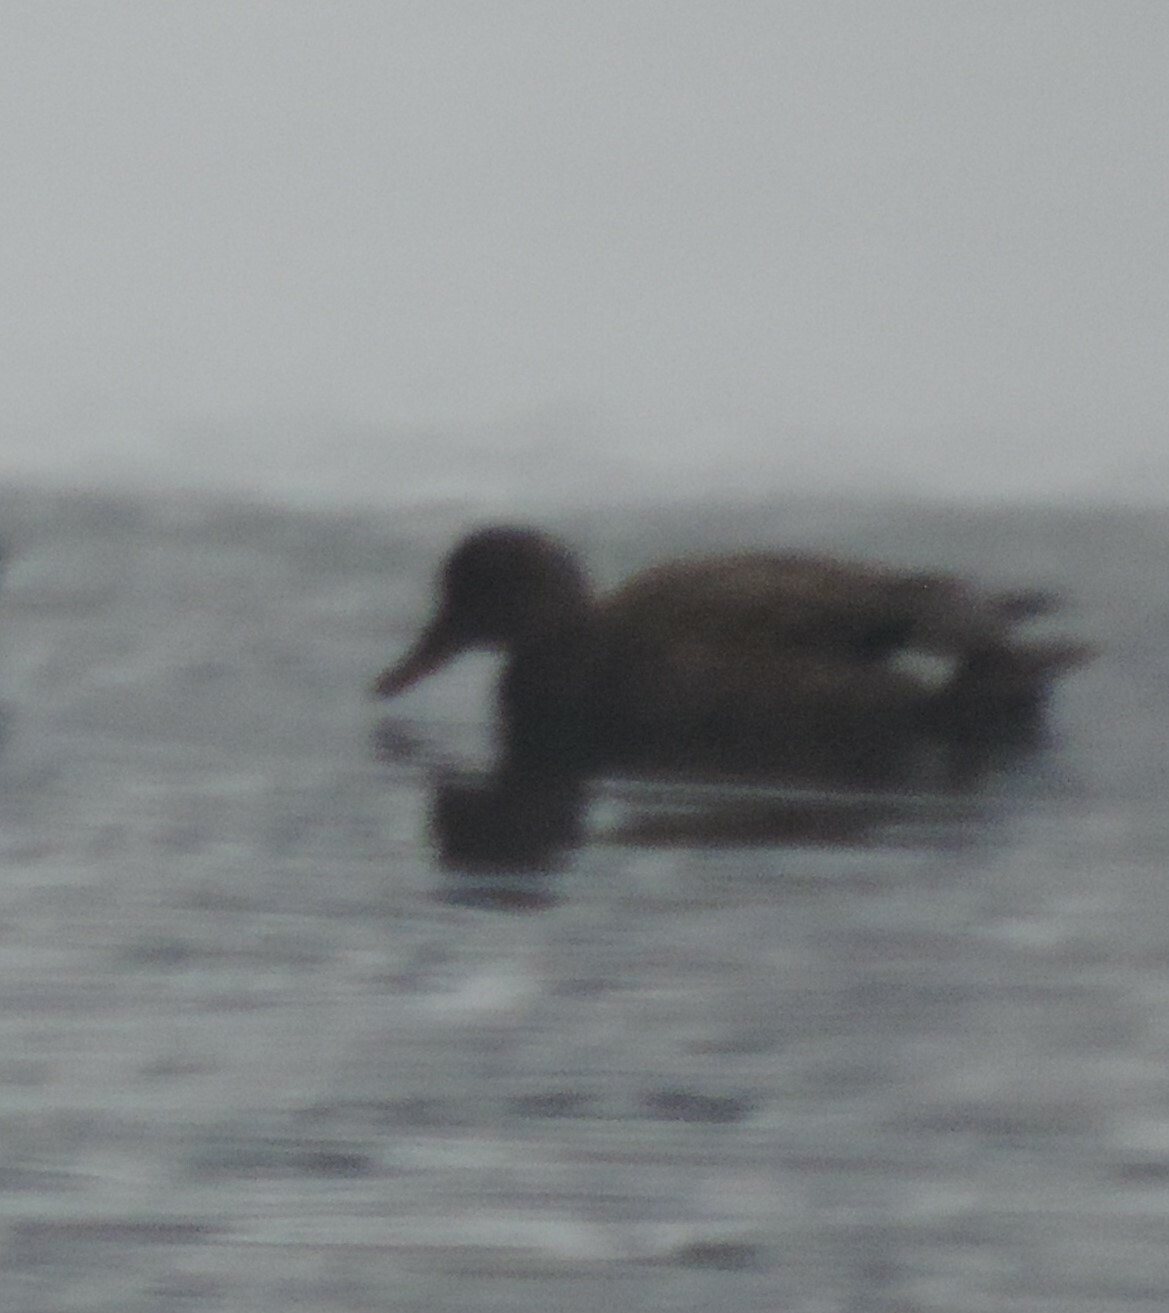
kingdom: Animalia
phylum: Chordata
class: Aves
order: Anseriformes
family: Anatidae
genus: Mareca
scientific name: Mareca strepera
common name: Gadwall
